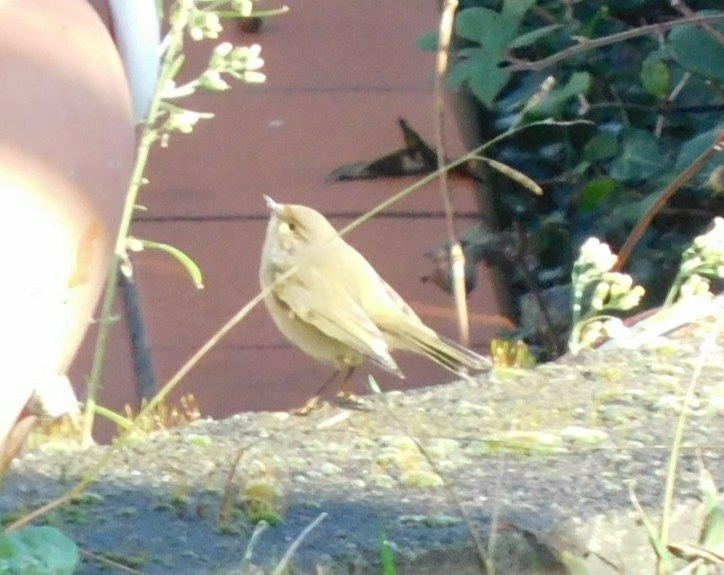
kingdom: Animalia
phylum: Chordata
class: Aves
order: Passeriformes
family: Phylloscopidae
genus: Phylloscopus
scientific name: Phylloscopus collybita
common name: Common chiffchaff
